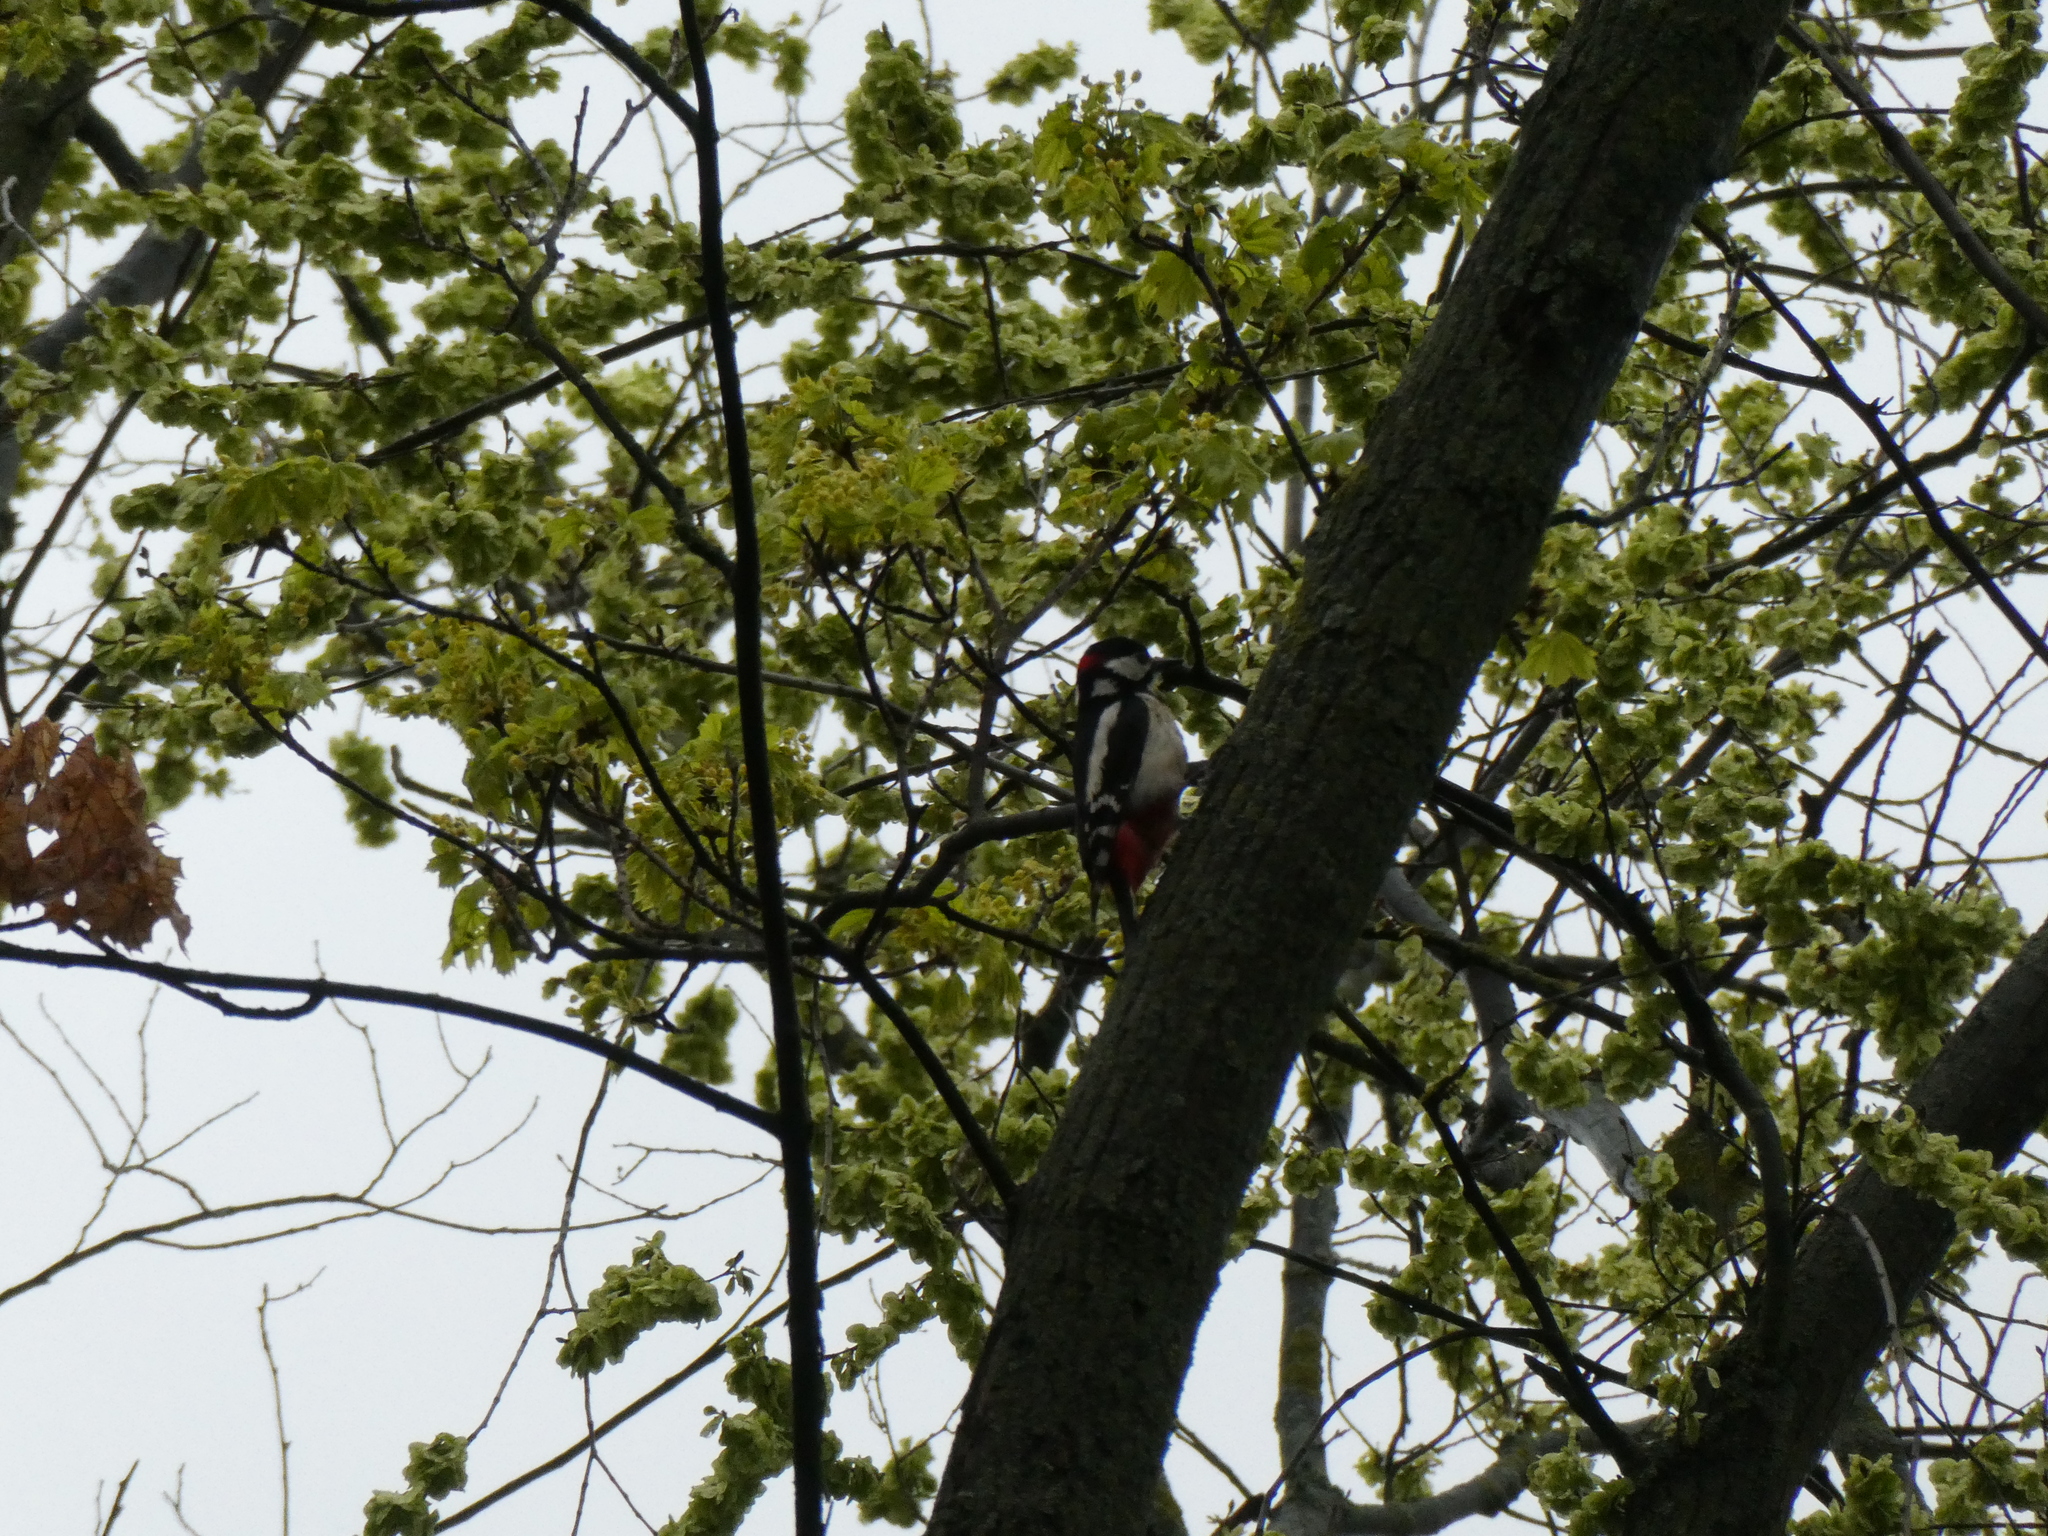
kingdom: Animalia
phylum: Chordata
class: Aves
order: Piciformes
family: Picidae
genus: Dendrocopos
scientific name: Dendrocopos major
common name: Great spotted woodpecker
